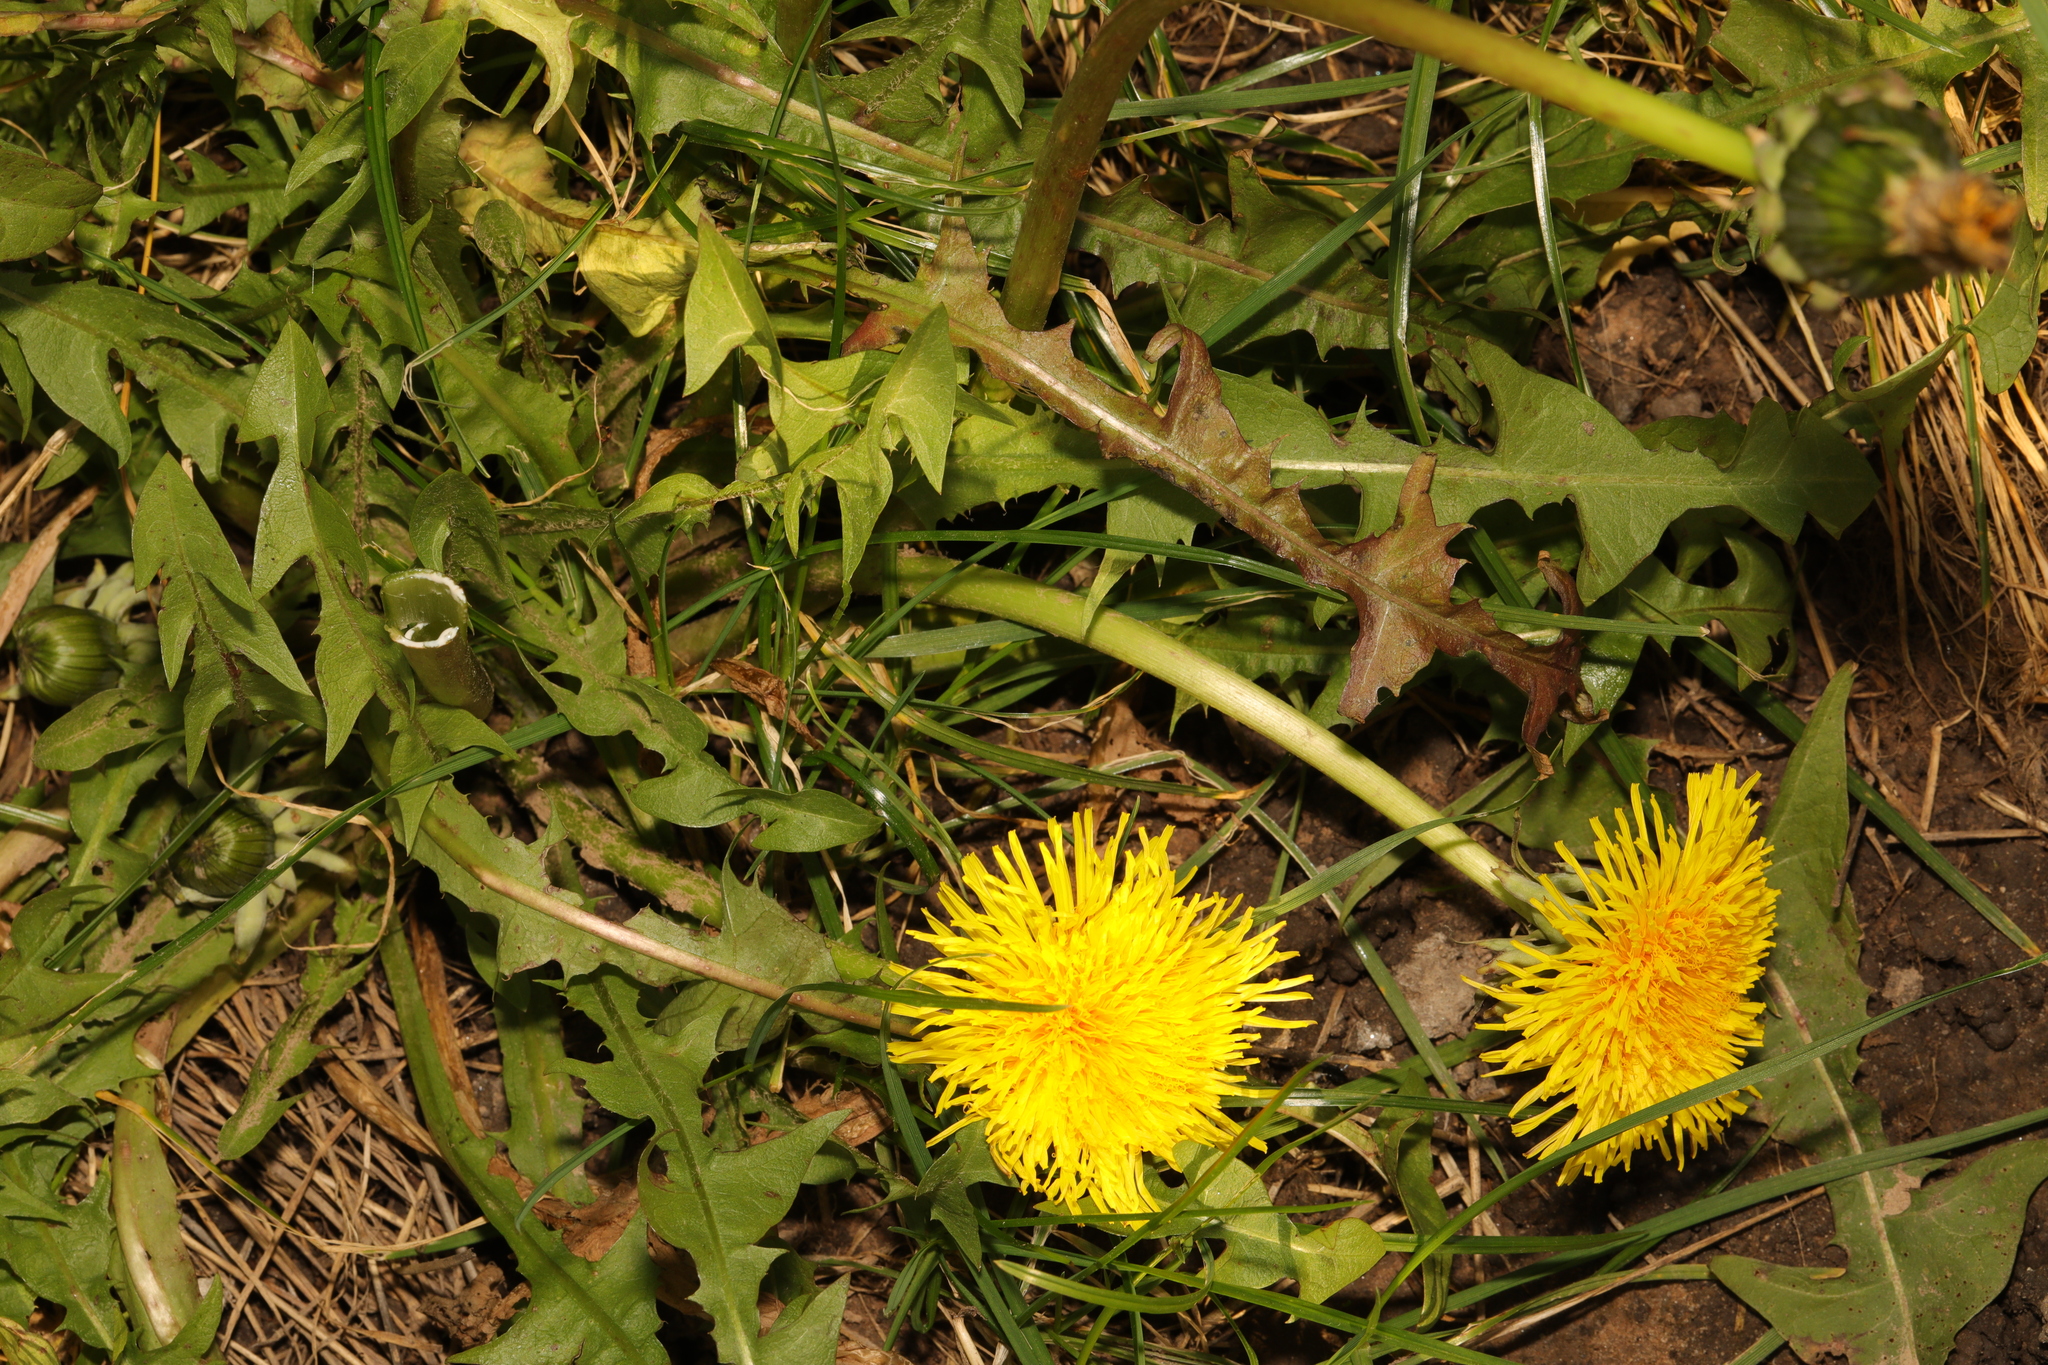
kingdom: Plantae
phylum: Tracheophyta
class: Magnoliopsida
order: Asterales
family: Asteraceae
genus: Taraxacum
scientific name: Taraxacum officinale
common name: Common dandelion
